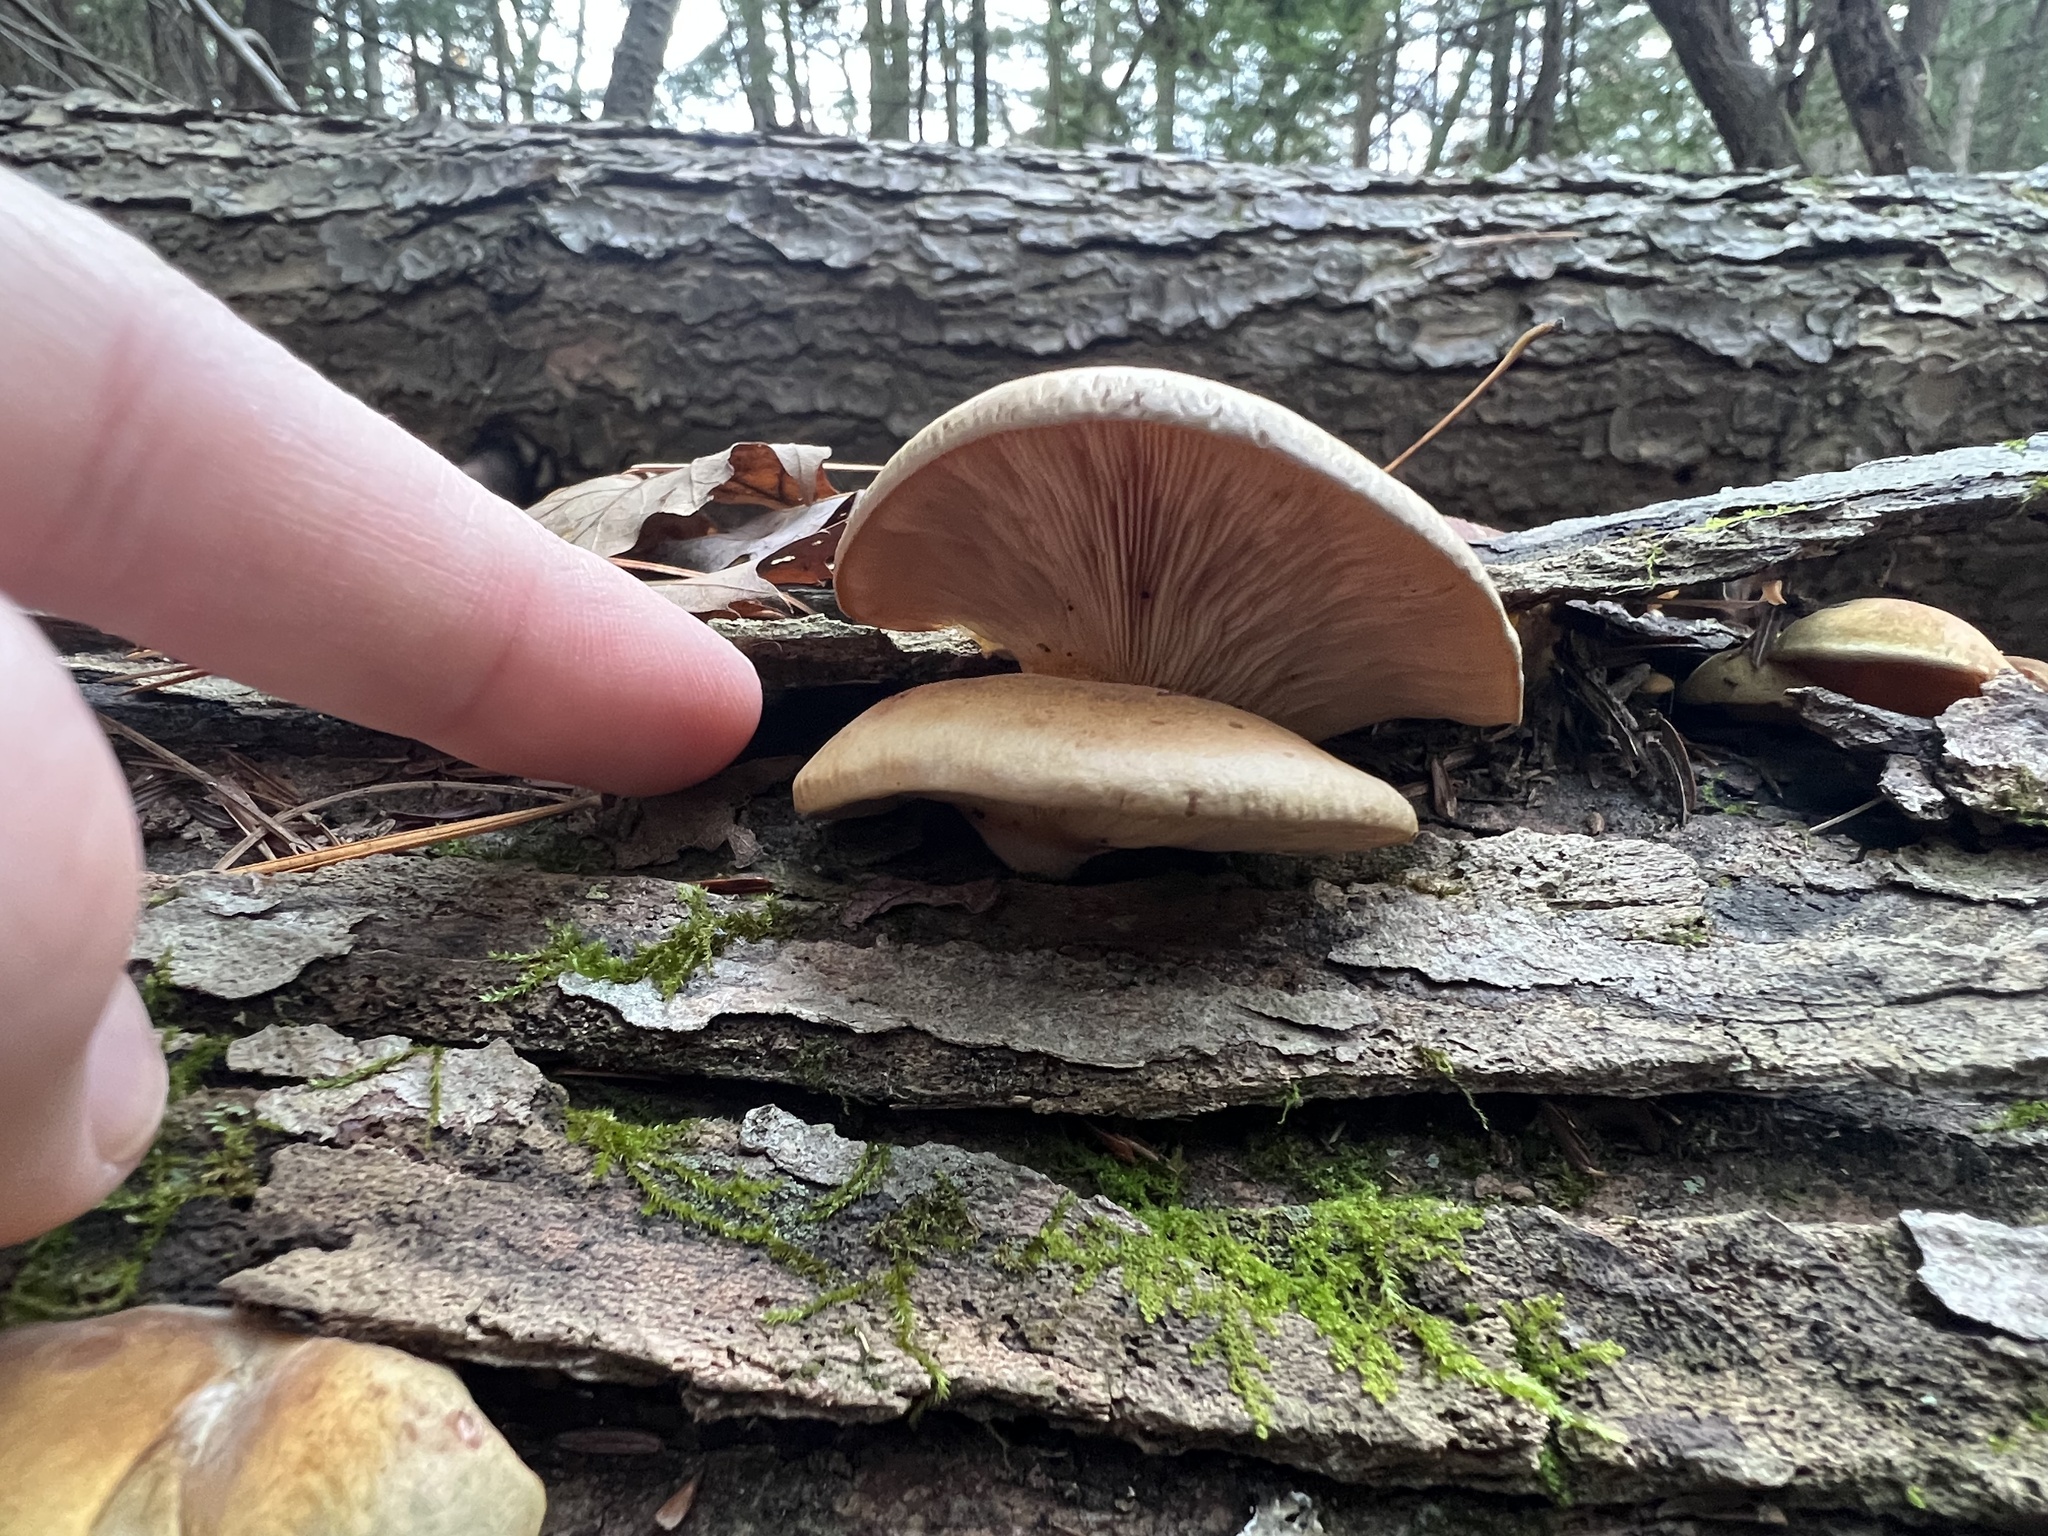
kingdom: Fungi
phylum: Basidiomycota
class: Agaricomycetes
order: Agaricales
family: Sarcomyxaceae
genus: Sarcomyxa
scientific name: Sarcomyxa serotina
